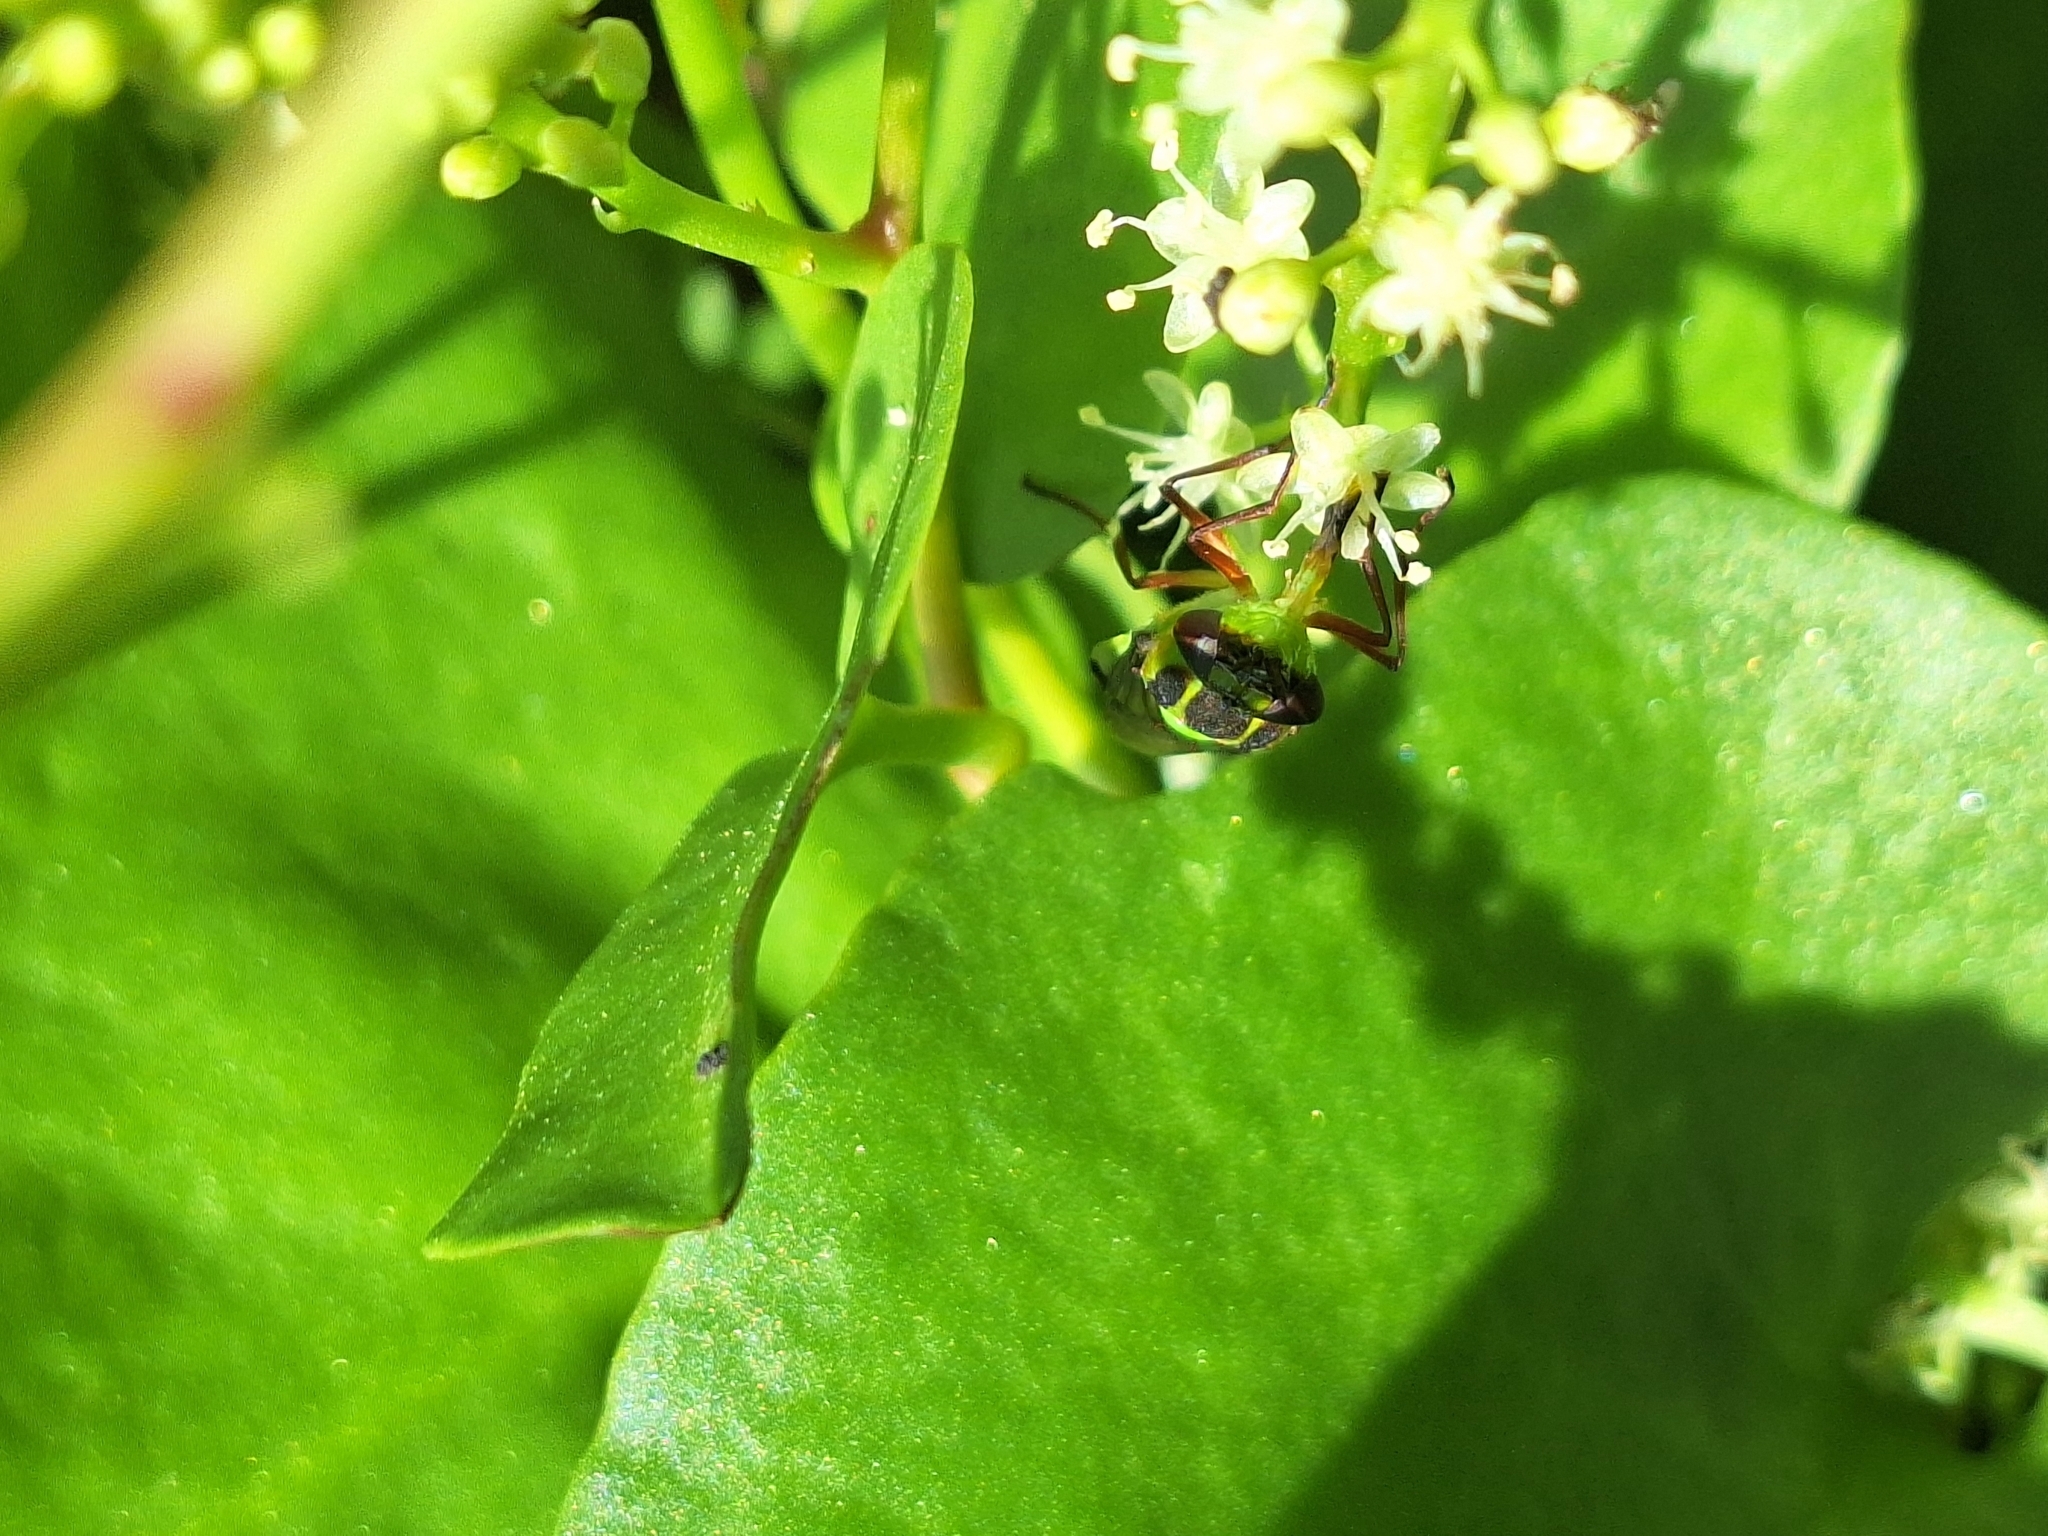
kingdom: Animalia
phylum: Arthropoda
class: Insecta
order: Diptera
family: Stratiomyidae
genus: Hedriodiscus
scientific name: Hedriodiscus pulcher
